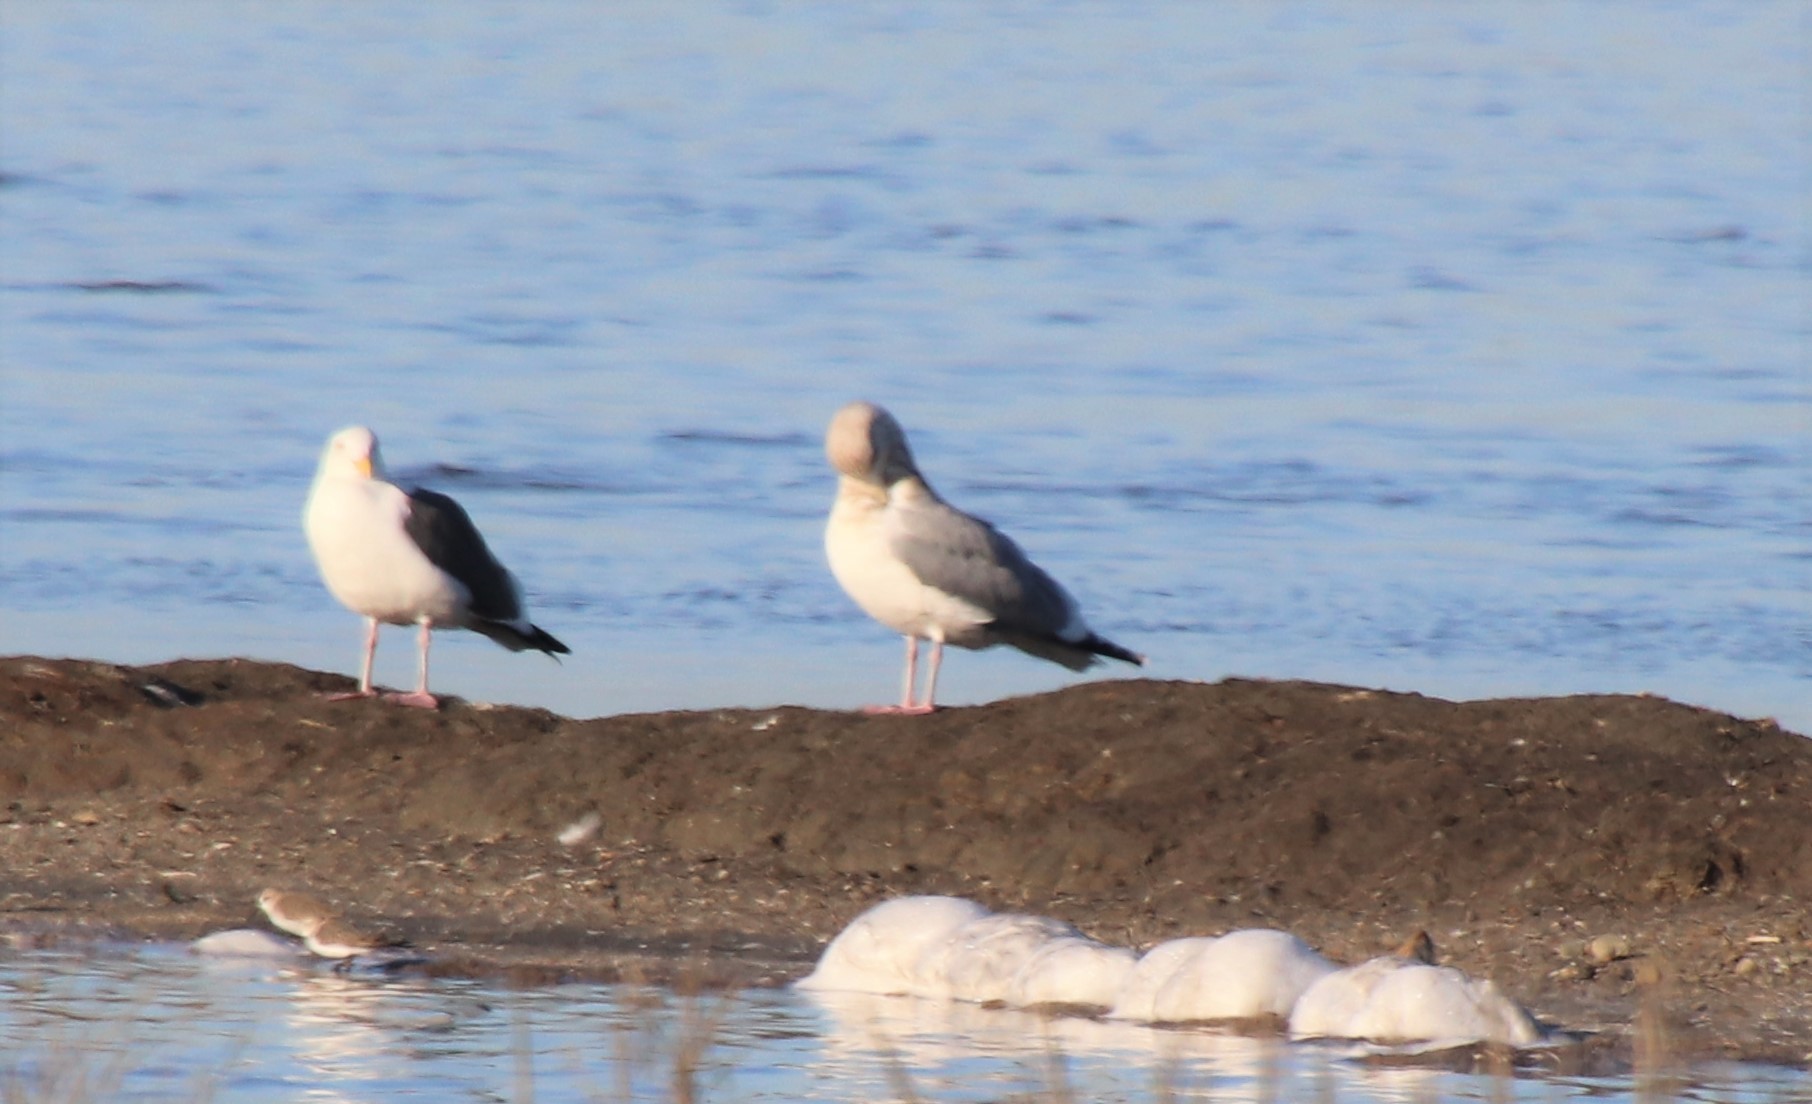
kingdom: Animalia
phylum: Chordata
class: Aves
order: Charadriiformes
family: Laridae
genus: Larus
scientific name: Larus occidentalis
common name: Western gull
